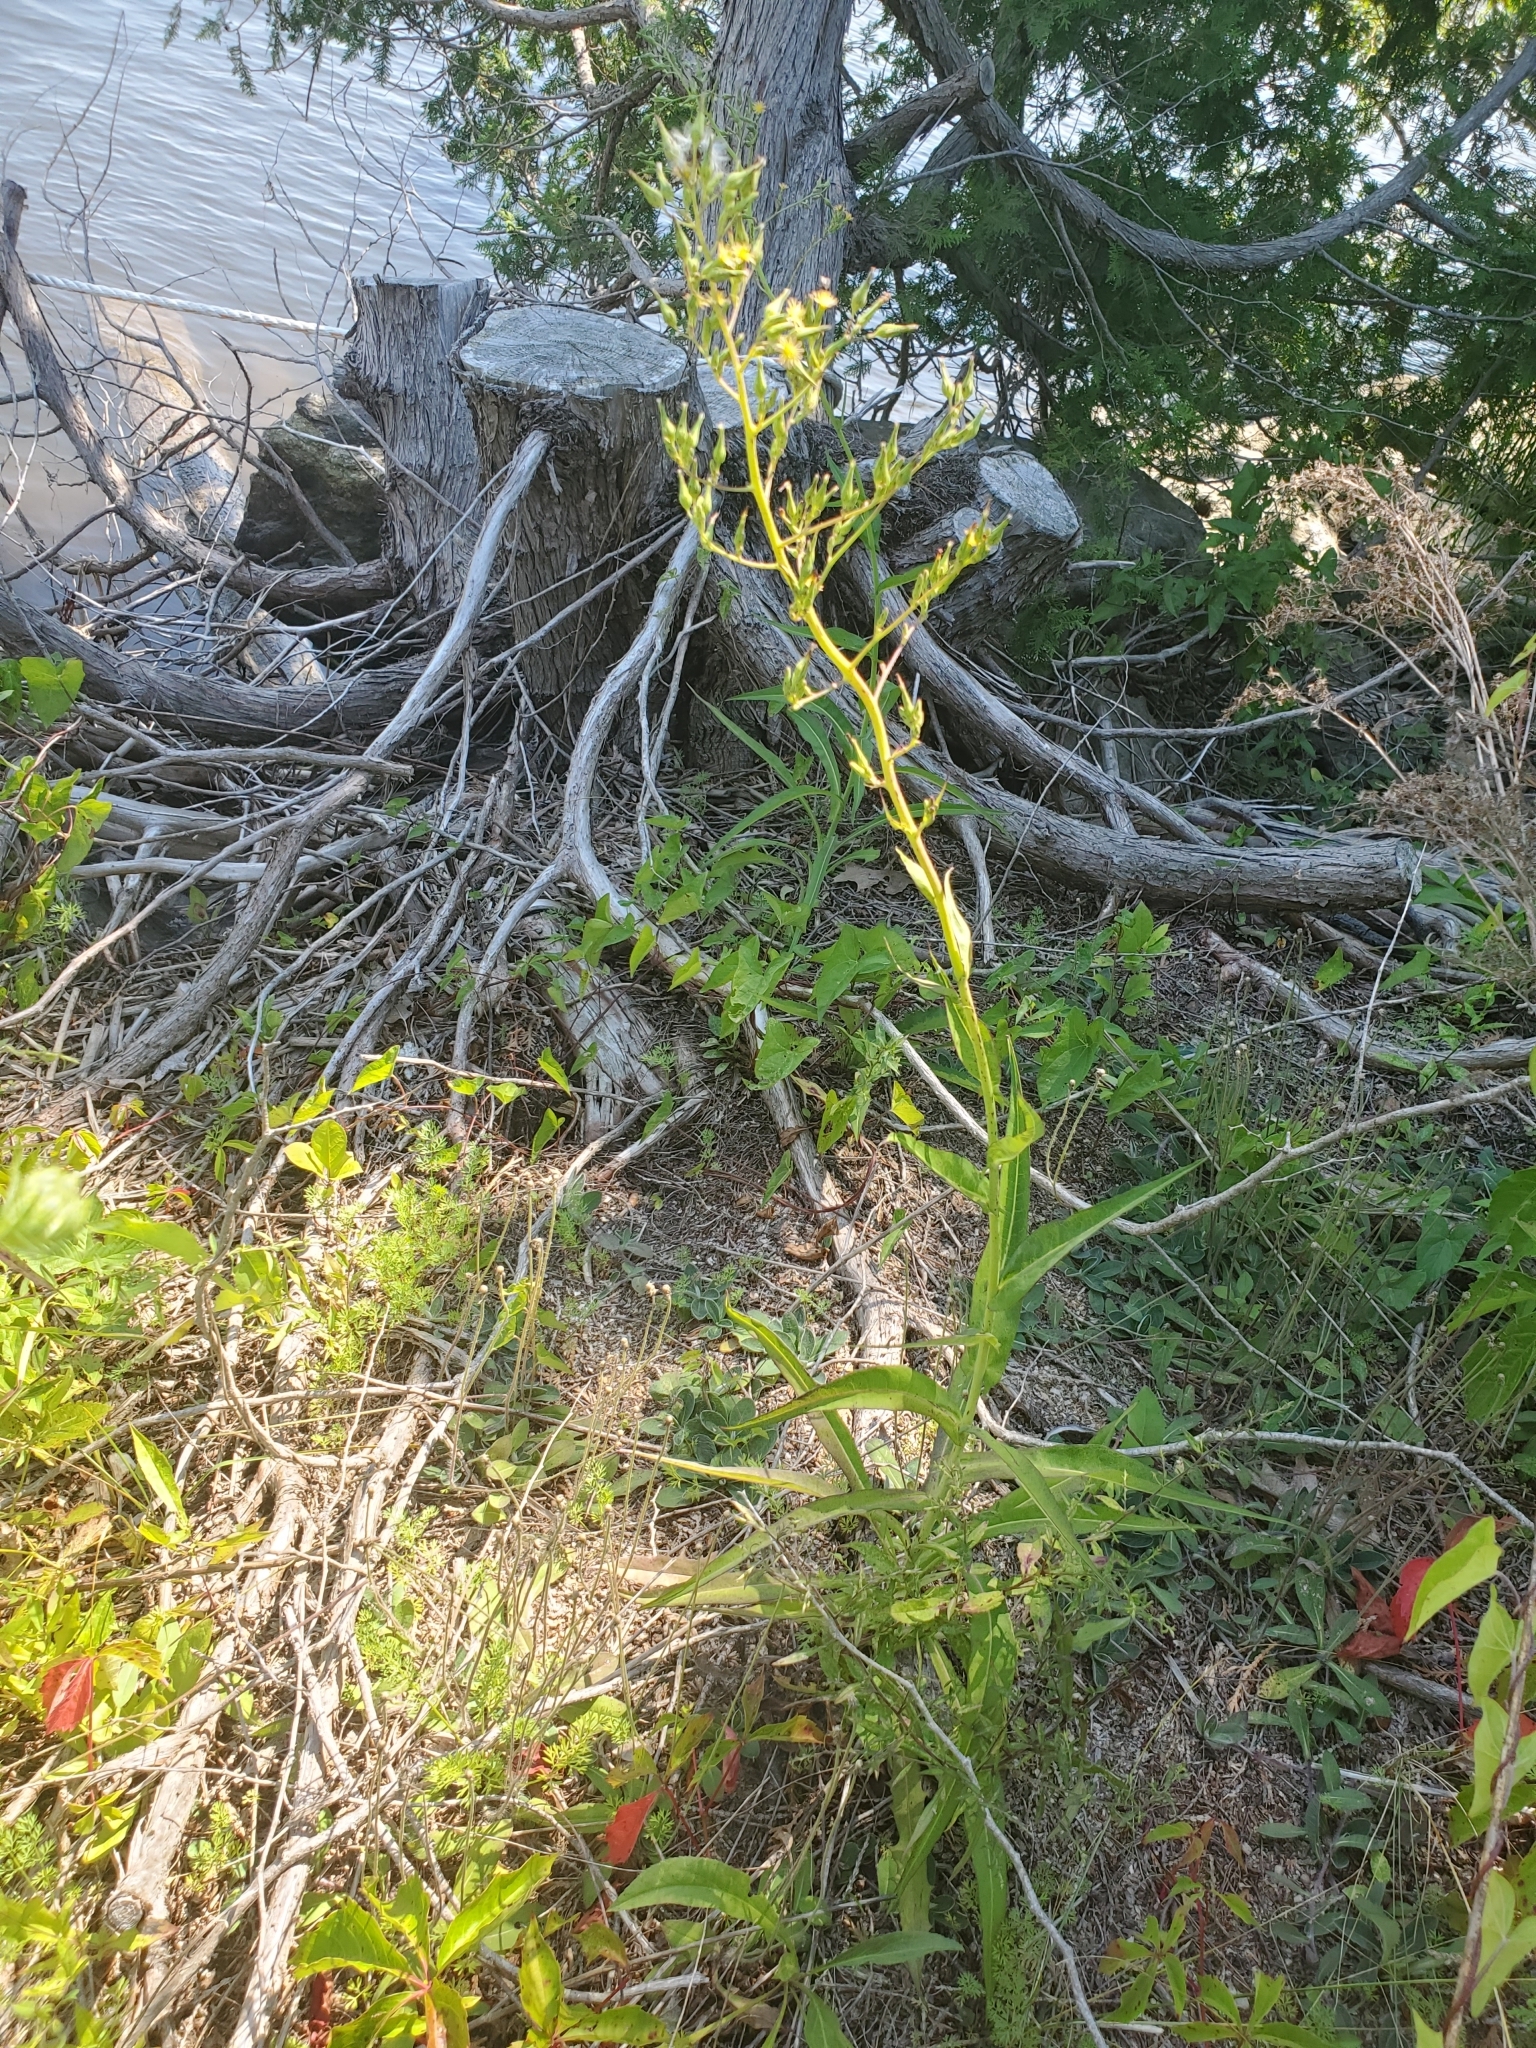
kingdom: Plantae
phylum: Tracheophyta
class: Magnoliopsida
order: Asterales
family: Asteraceae
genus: Lactuca
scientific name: Lactuca canadensis
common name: Canada lettuce
